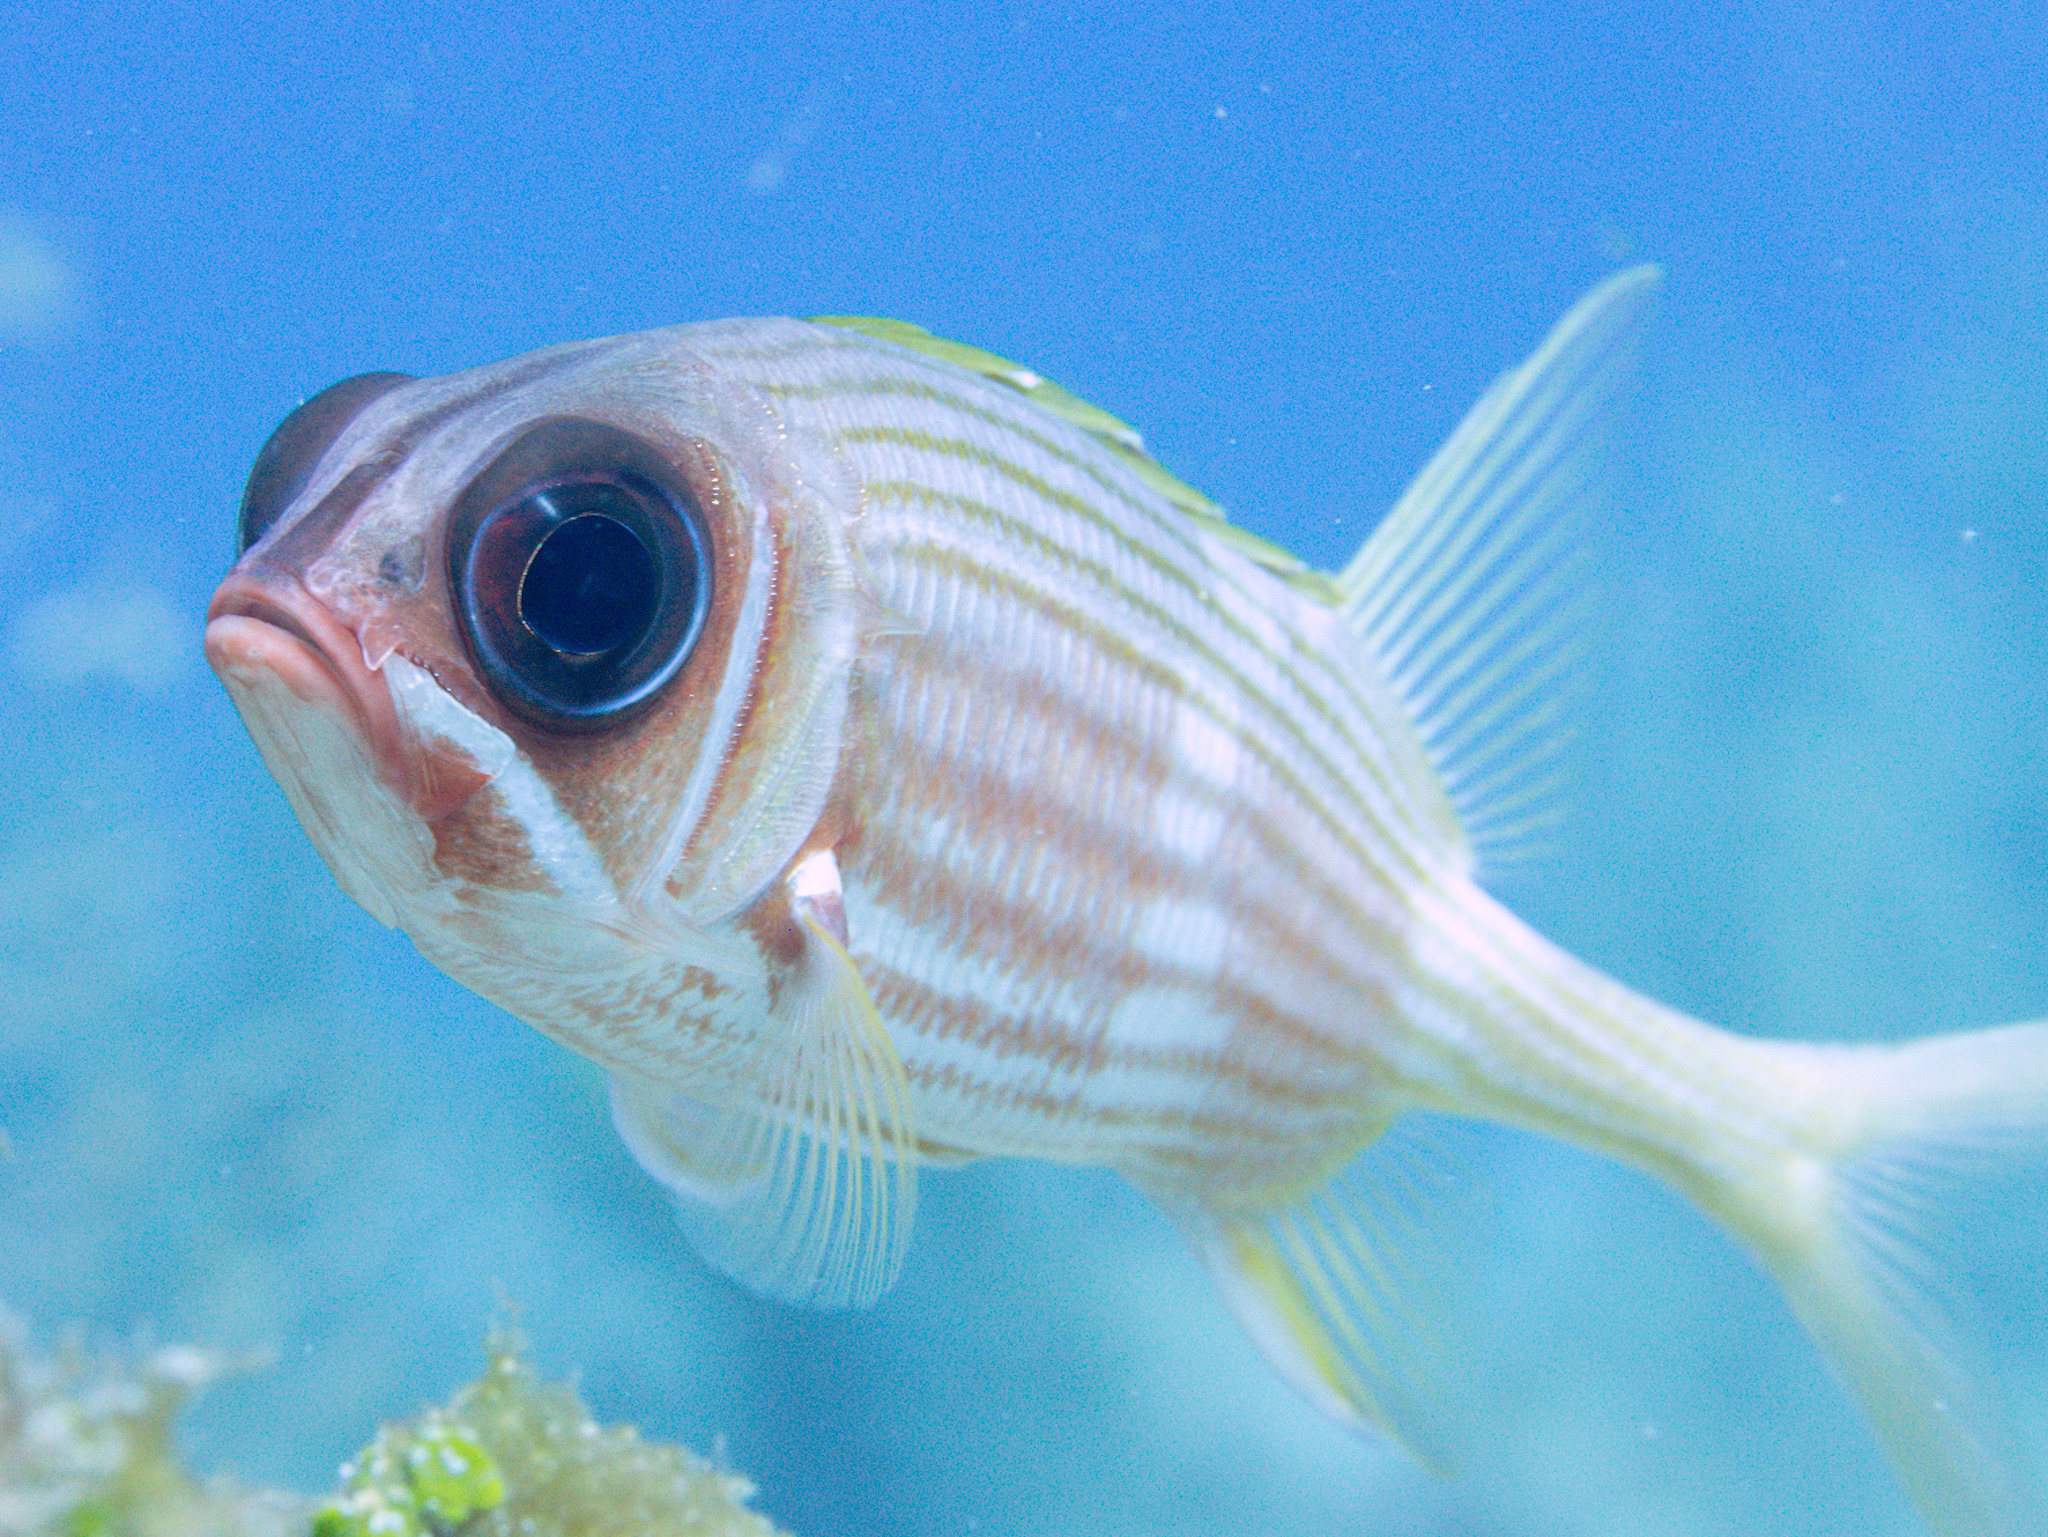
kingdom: Animalia
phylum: Chordata
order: Beryciformes
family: Holocentridae
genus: Holocentrus
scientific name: Holocentrus rufus
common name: Longspine squirrelfish
